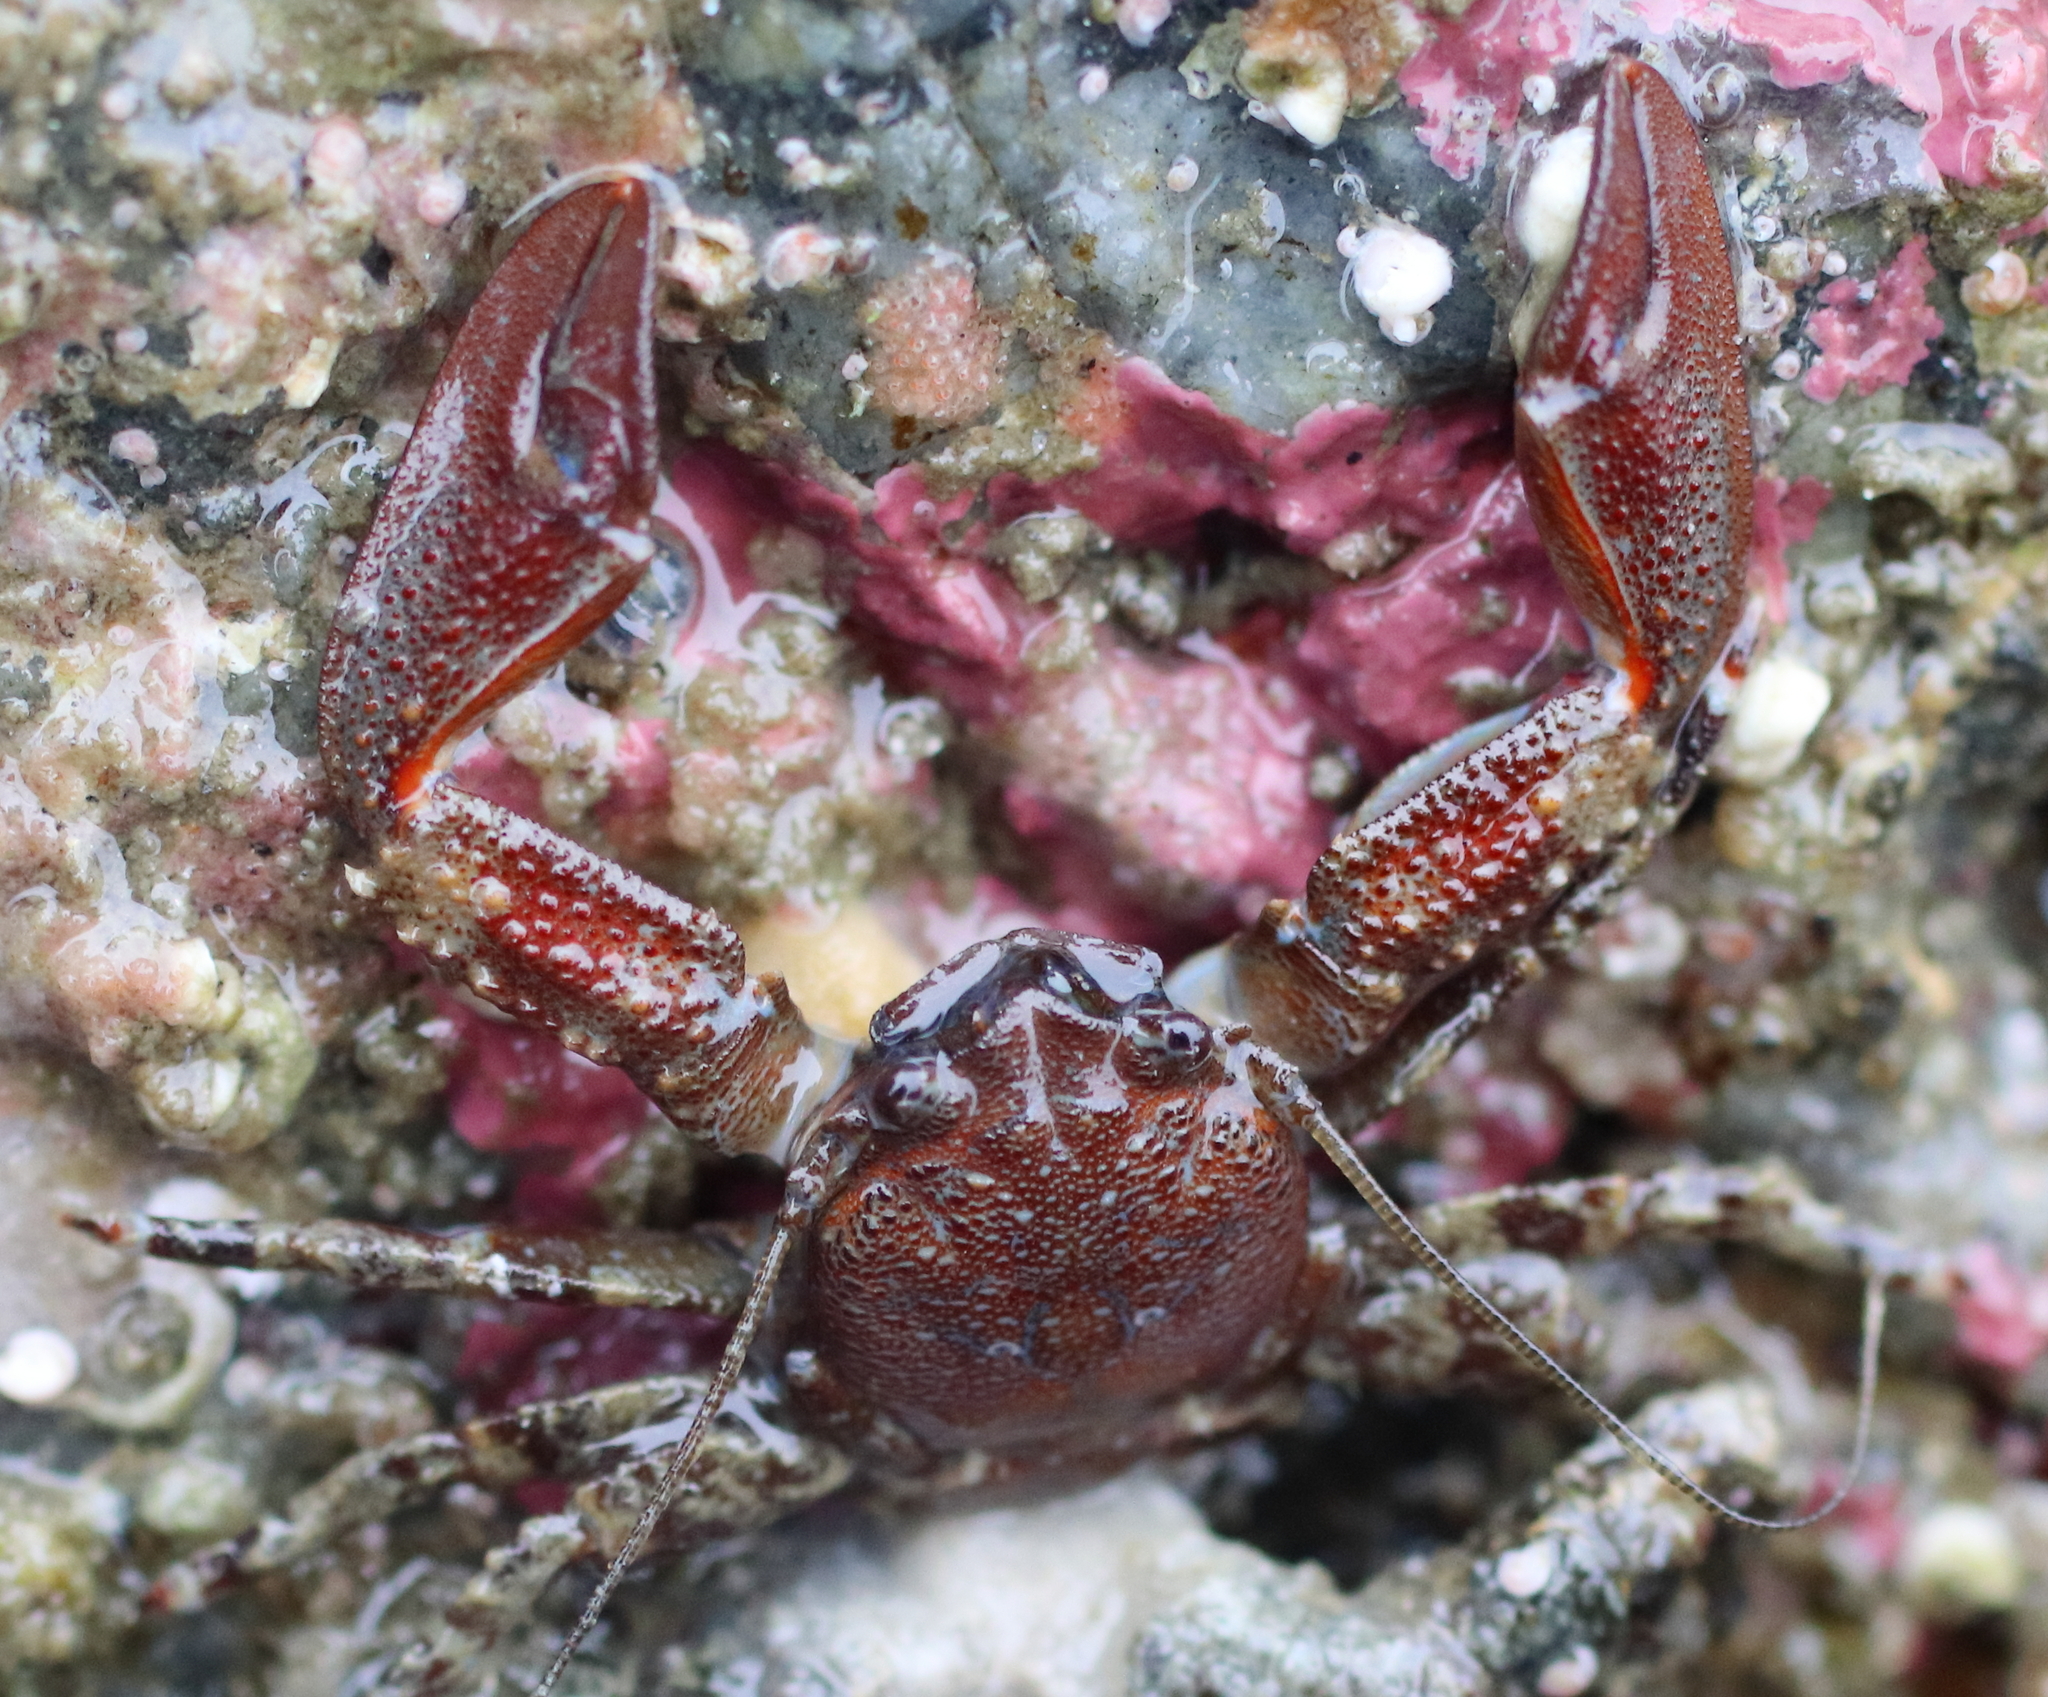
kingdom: Animalia
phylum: Arthropoda
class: Malacostraca
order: Decapoda
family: Porcellanidae
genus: Petrolisthes
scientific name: Petrolisthes eriomerus
